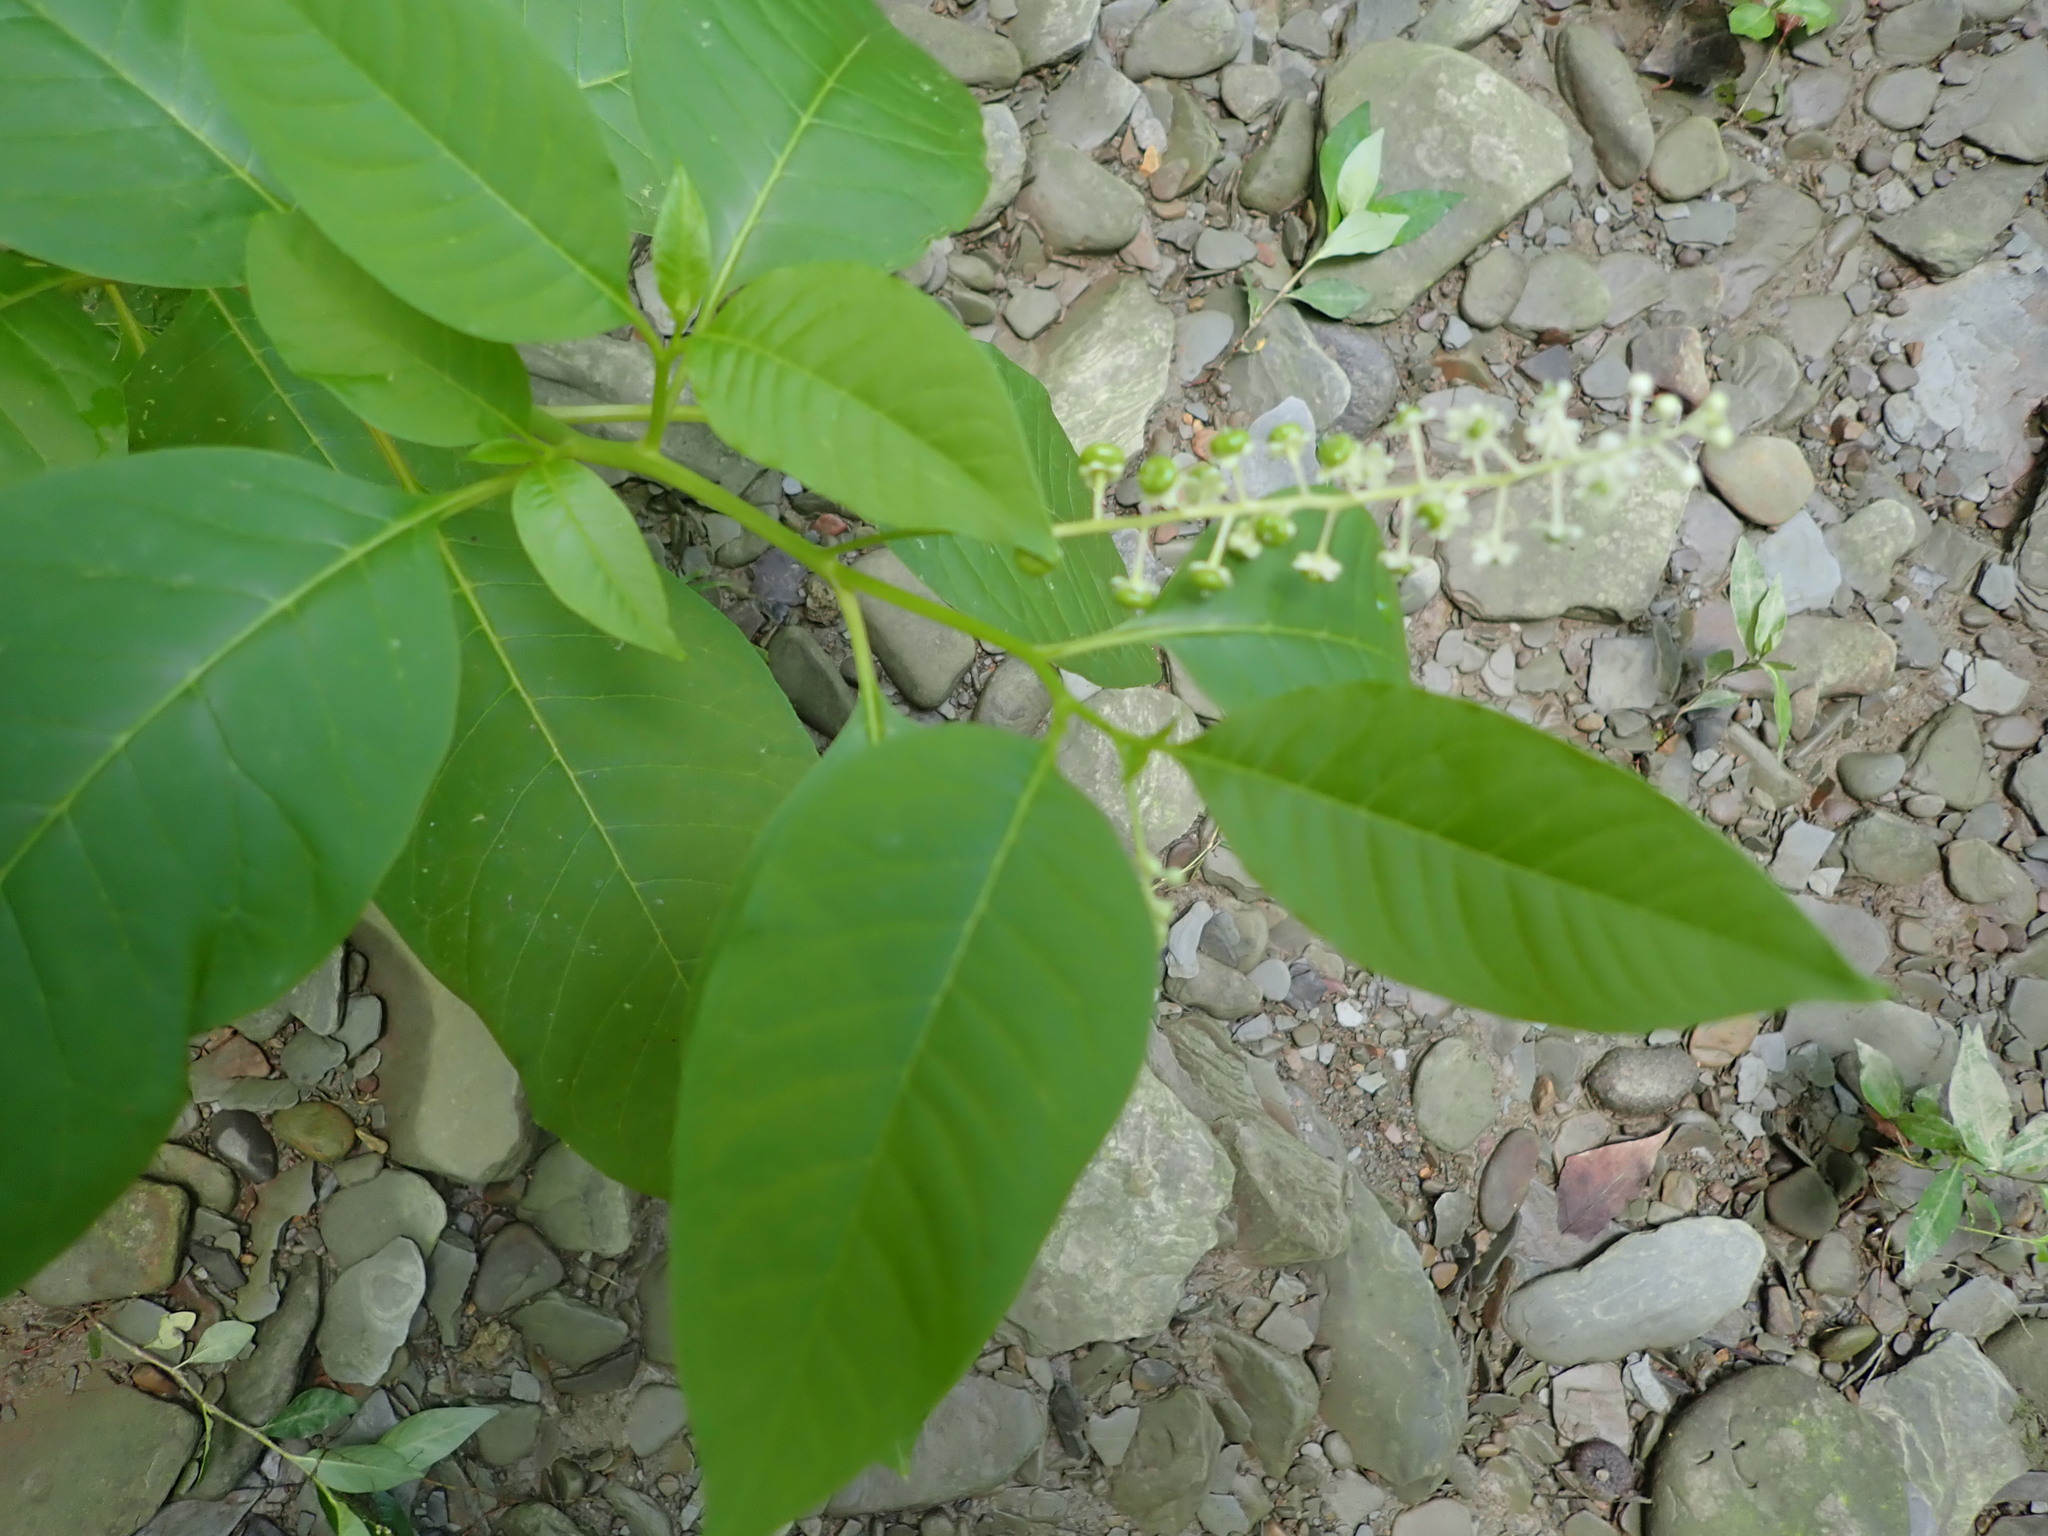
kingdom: Plantae
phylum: Tracheophyta
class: Magnoliopsida
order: Caryophyllales
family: Phytolaccaceae
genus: Phytolacca
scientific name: Phytolacca americana
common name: American pokeweed
